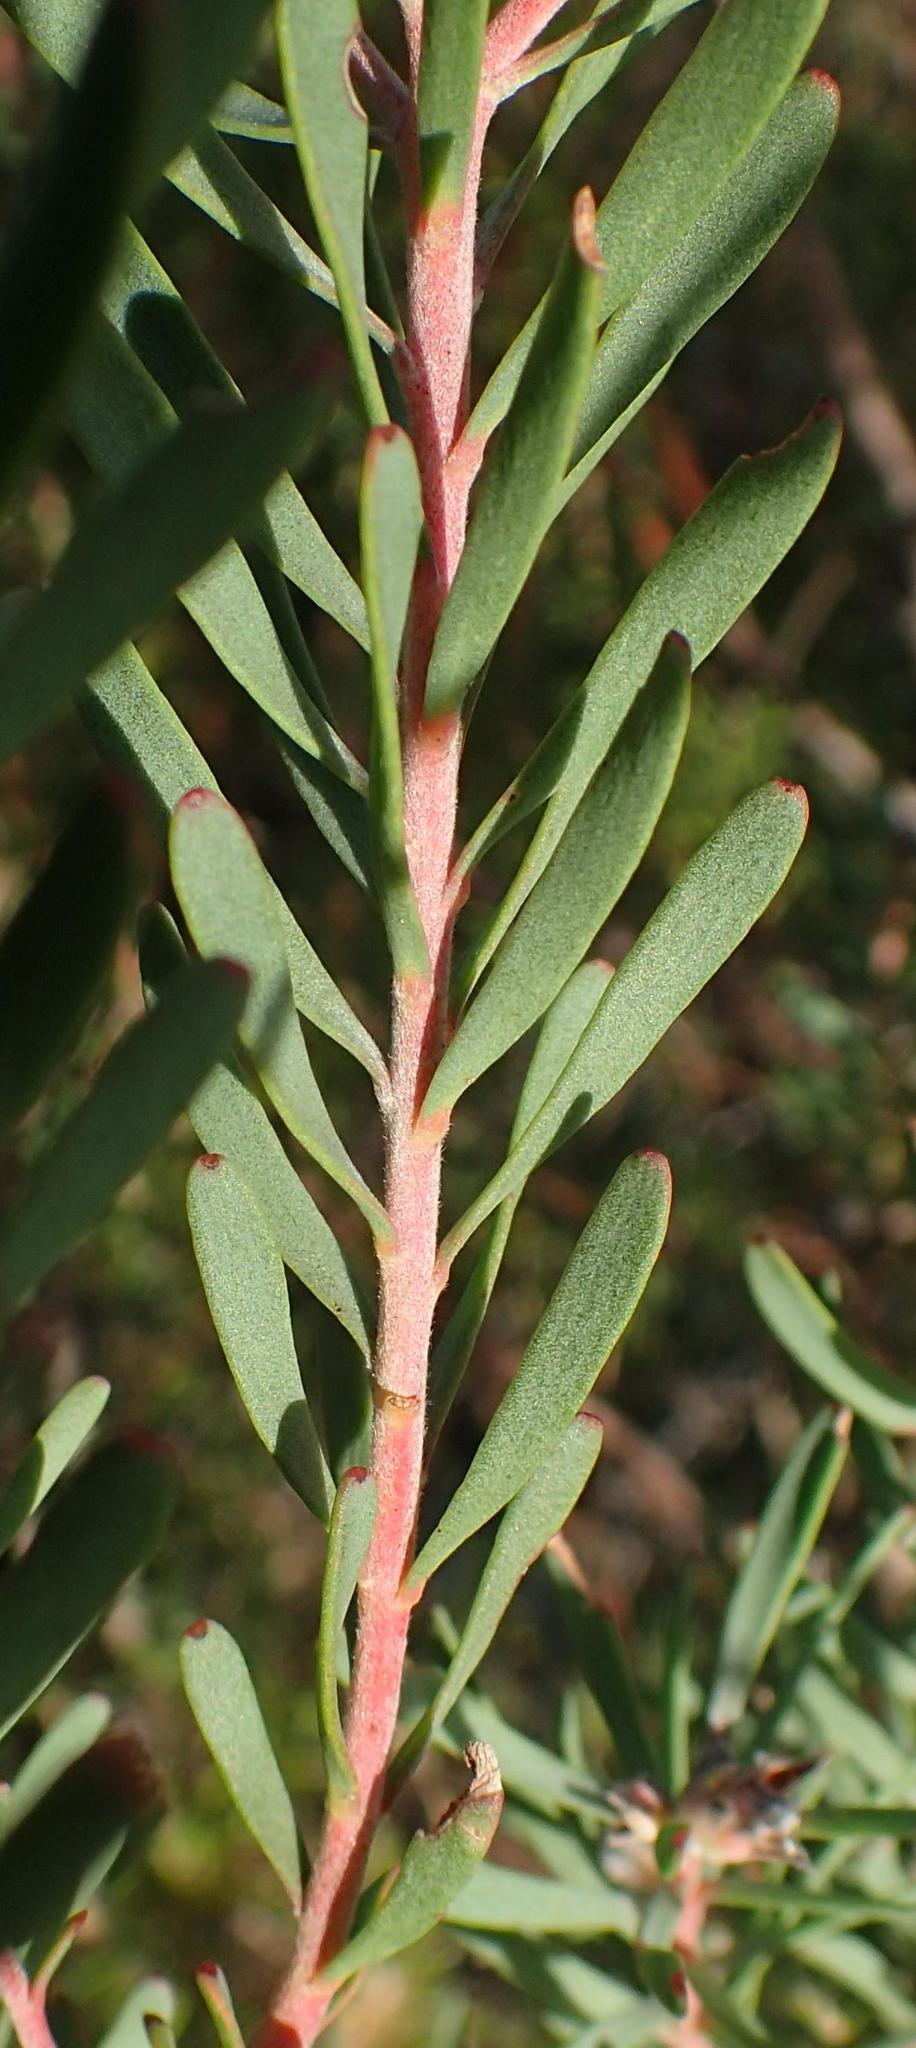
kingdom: Plantae
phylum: Tracheophyta
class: Magnoliopsida
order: Proteales
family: Proteaceae
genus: Leucadendron
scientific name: Leucadendron galpinii
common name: Hairless conebush
